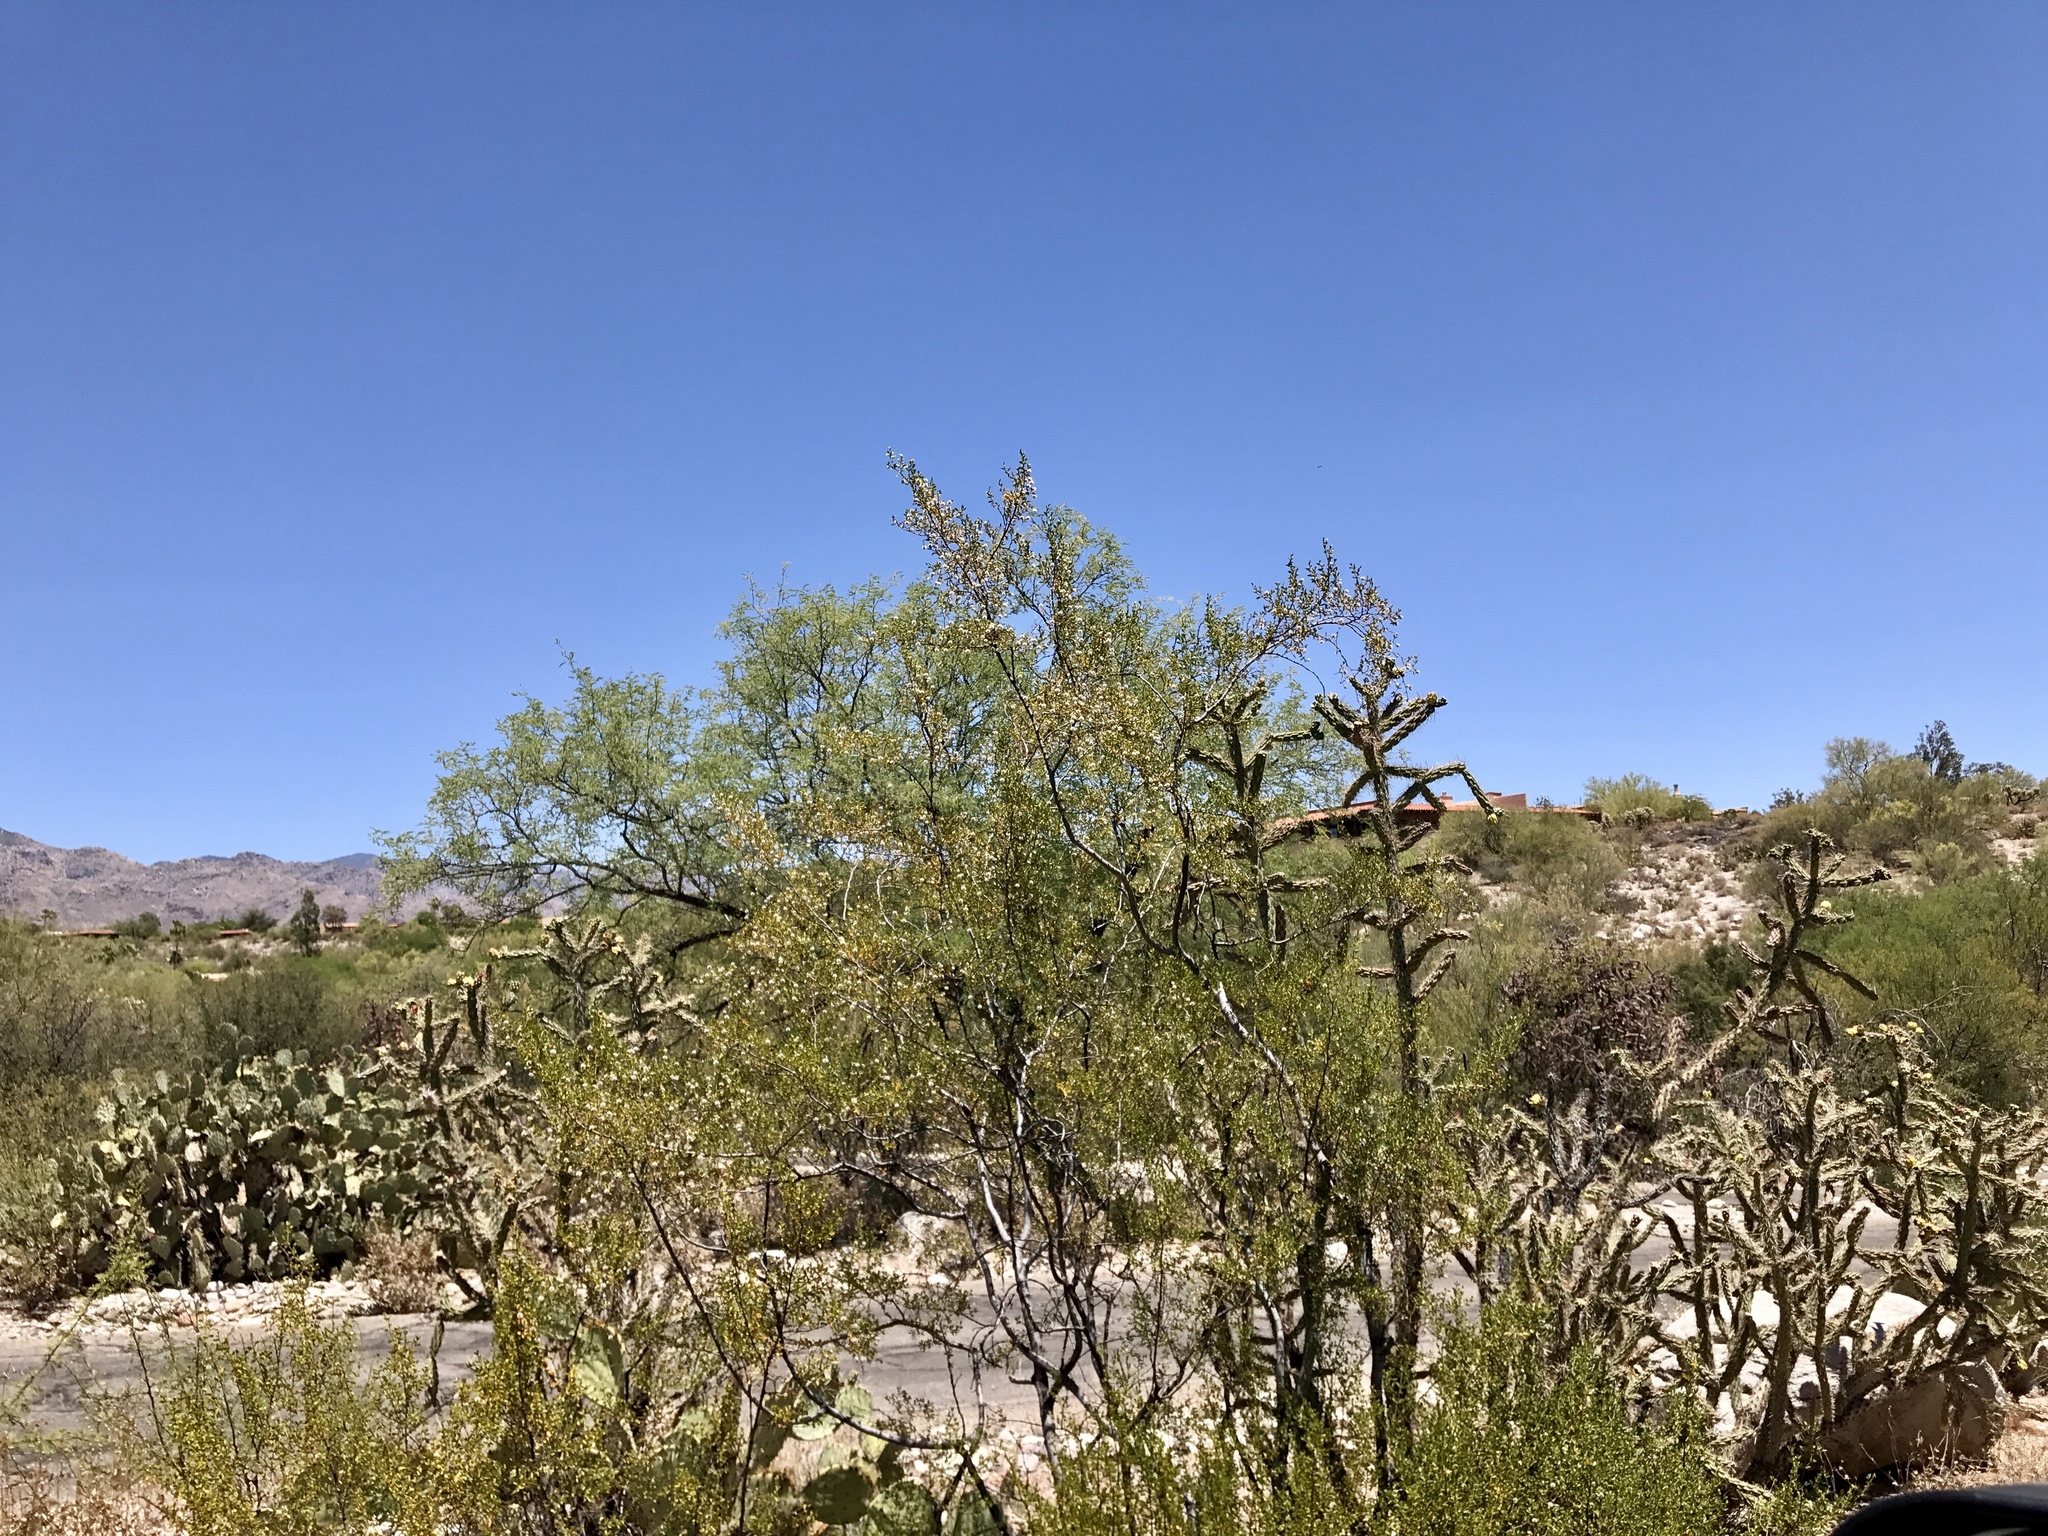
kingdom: Plantae
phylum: Tracheophyta
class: Magnoliopsida
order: Zygophyllales
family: Zygophyllaceae
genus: Larrea
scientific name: Larrea tridentata
